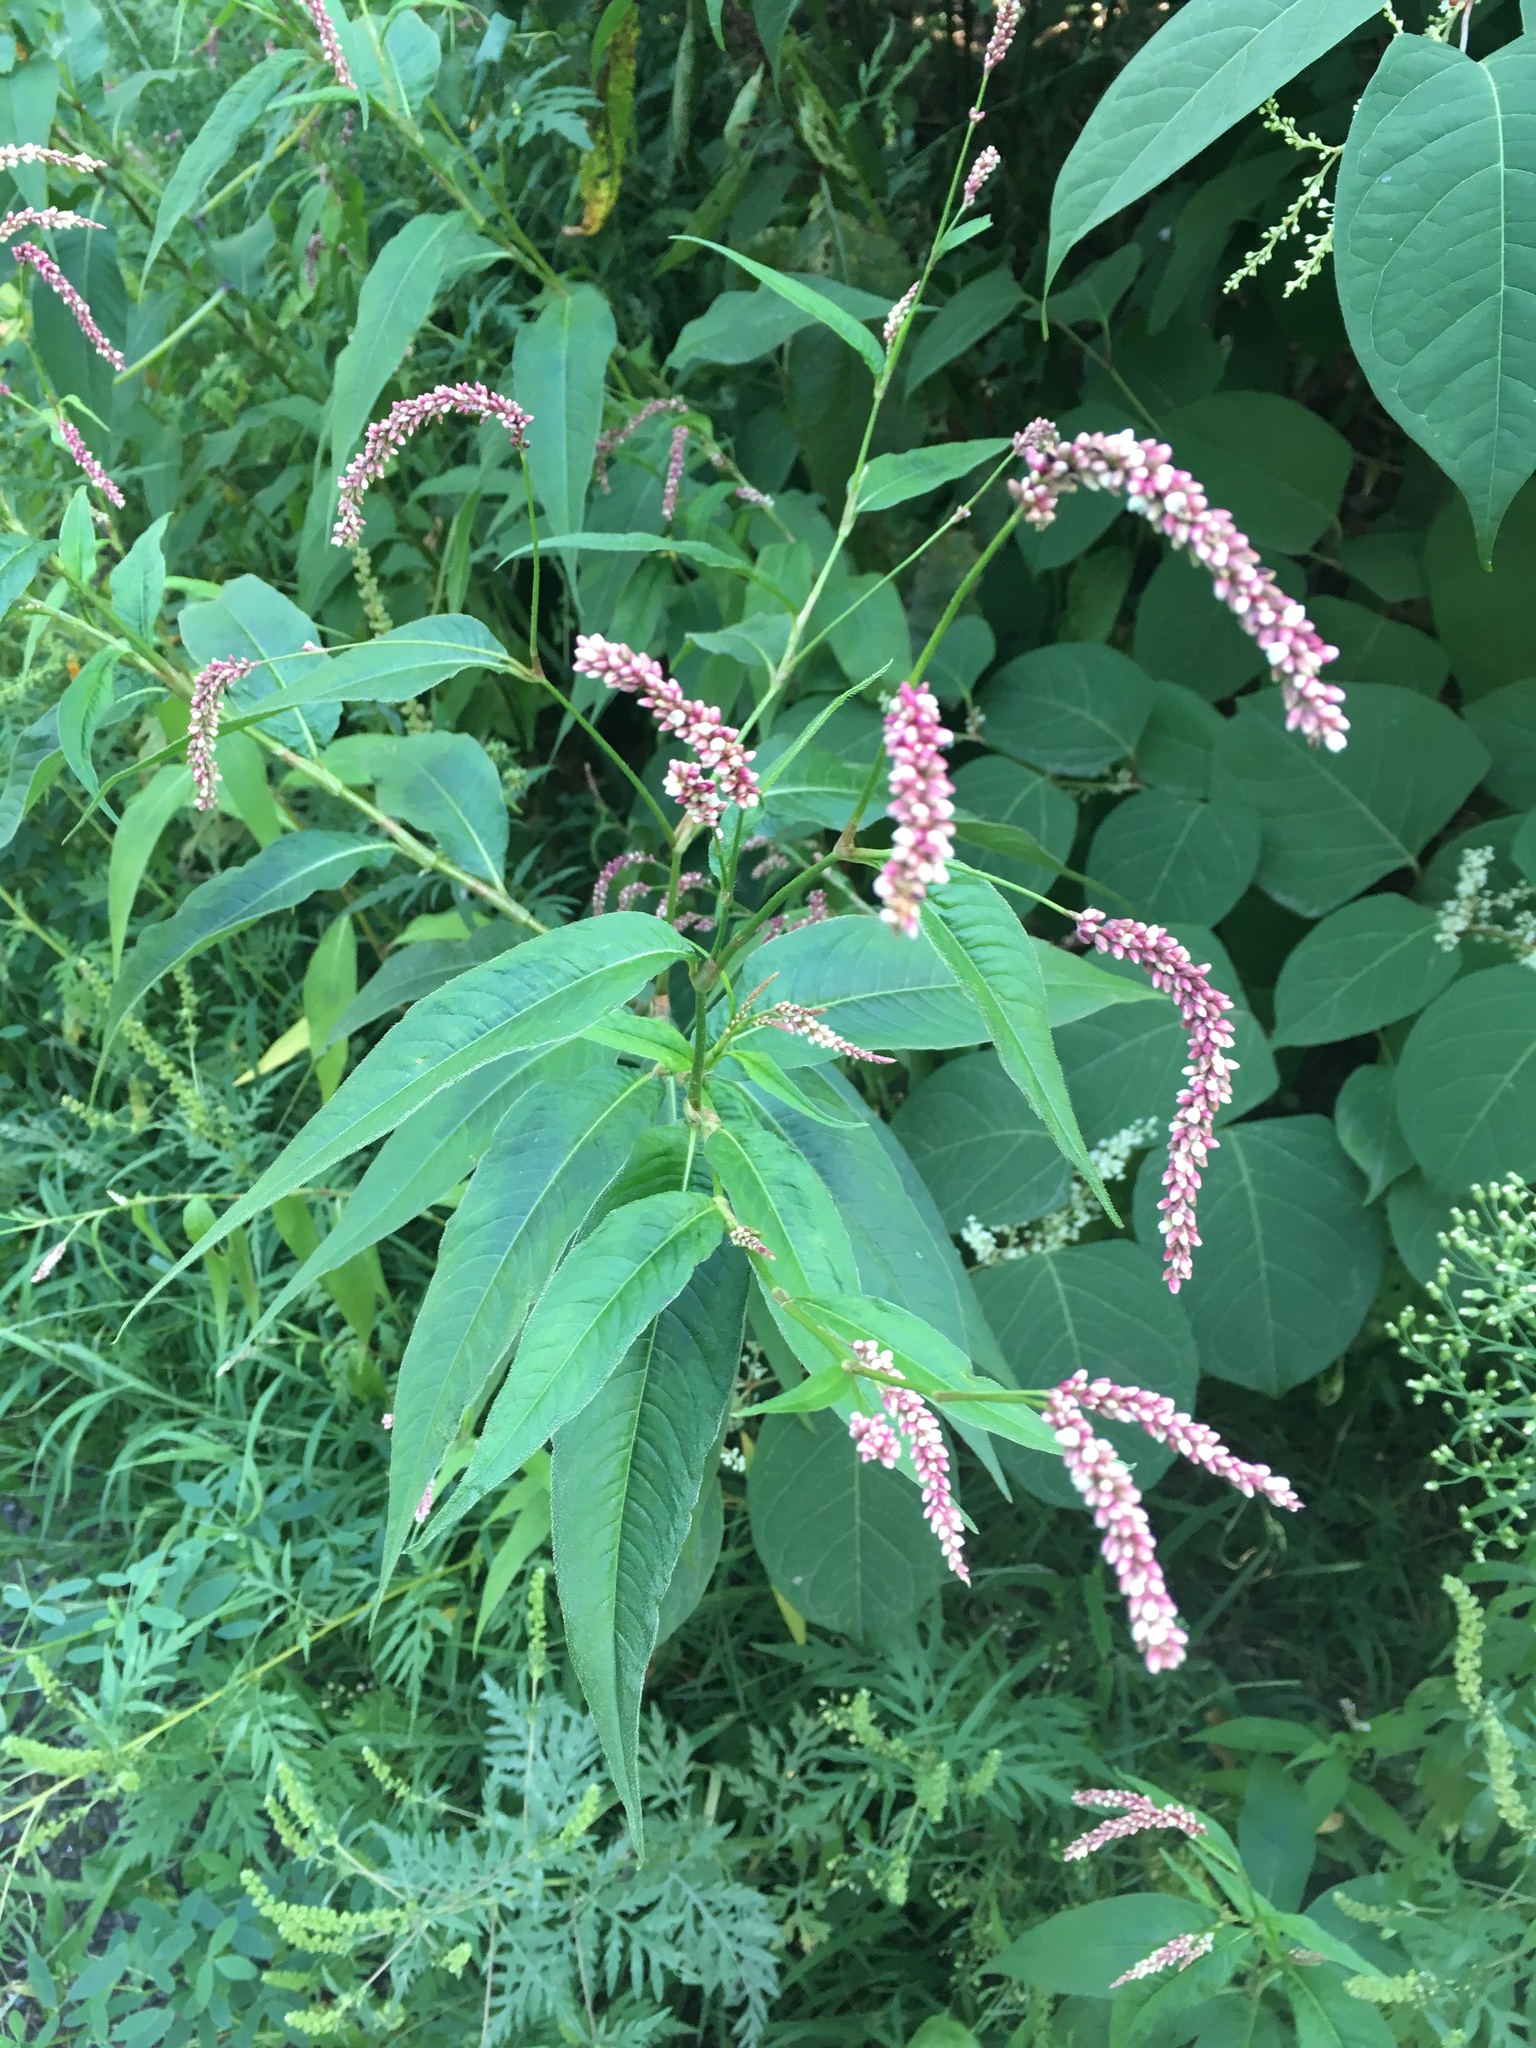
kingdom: Plantae
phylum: Tracheophyta
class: Magnoliopsida
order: Caryophyllales
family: Polygonaceae
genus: Persicaria
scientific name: Persicaria extremiorientalis
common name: Far-eastern smartweed
